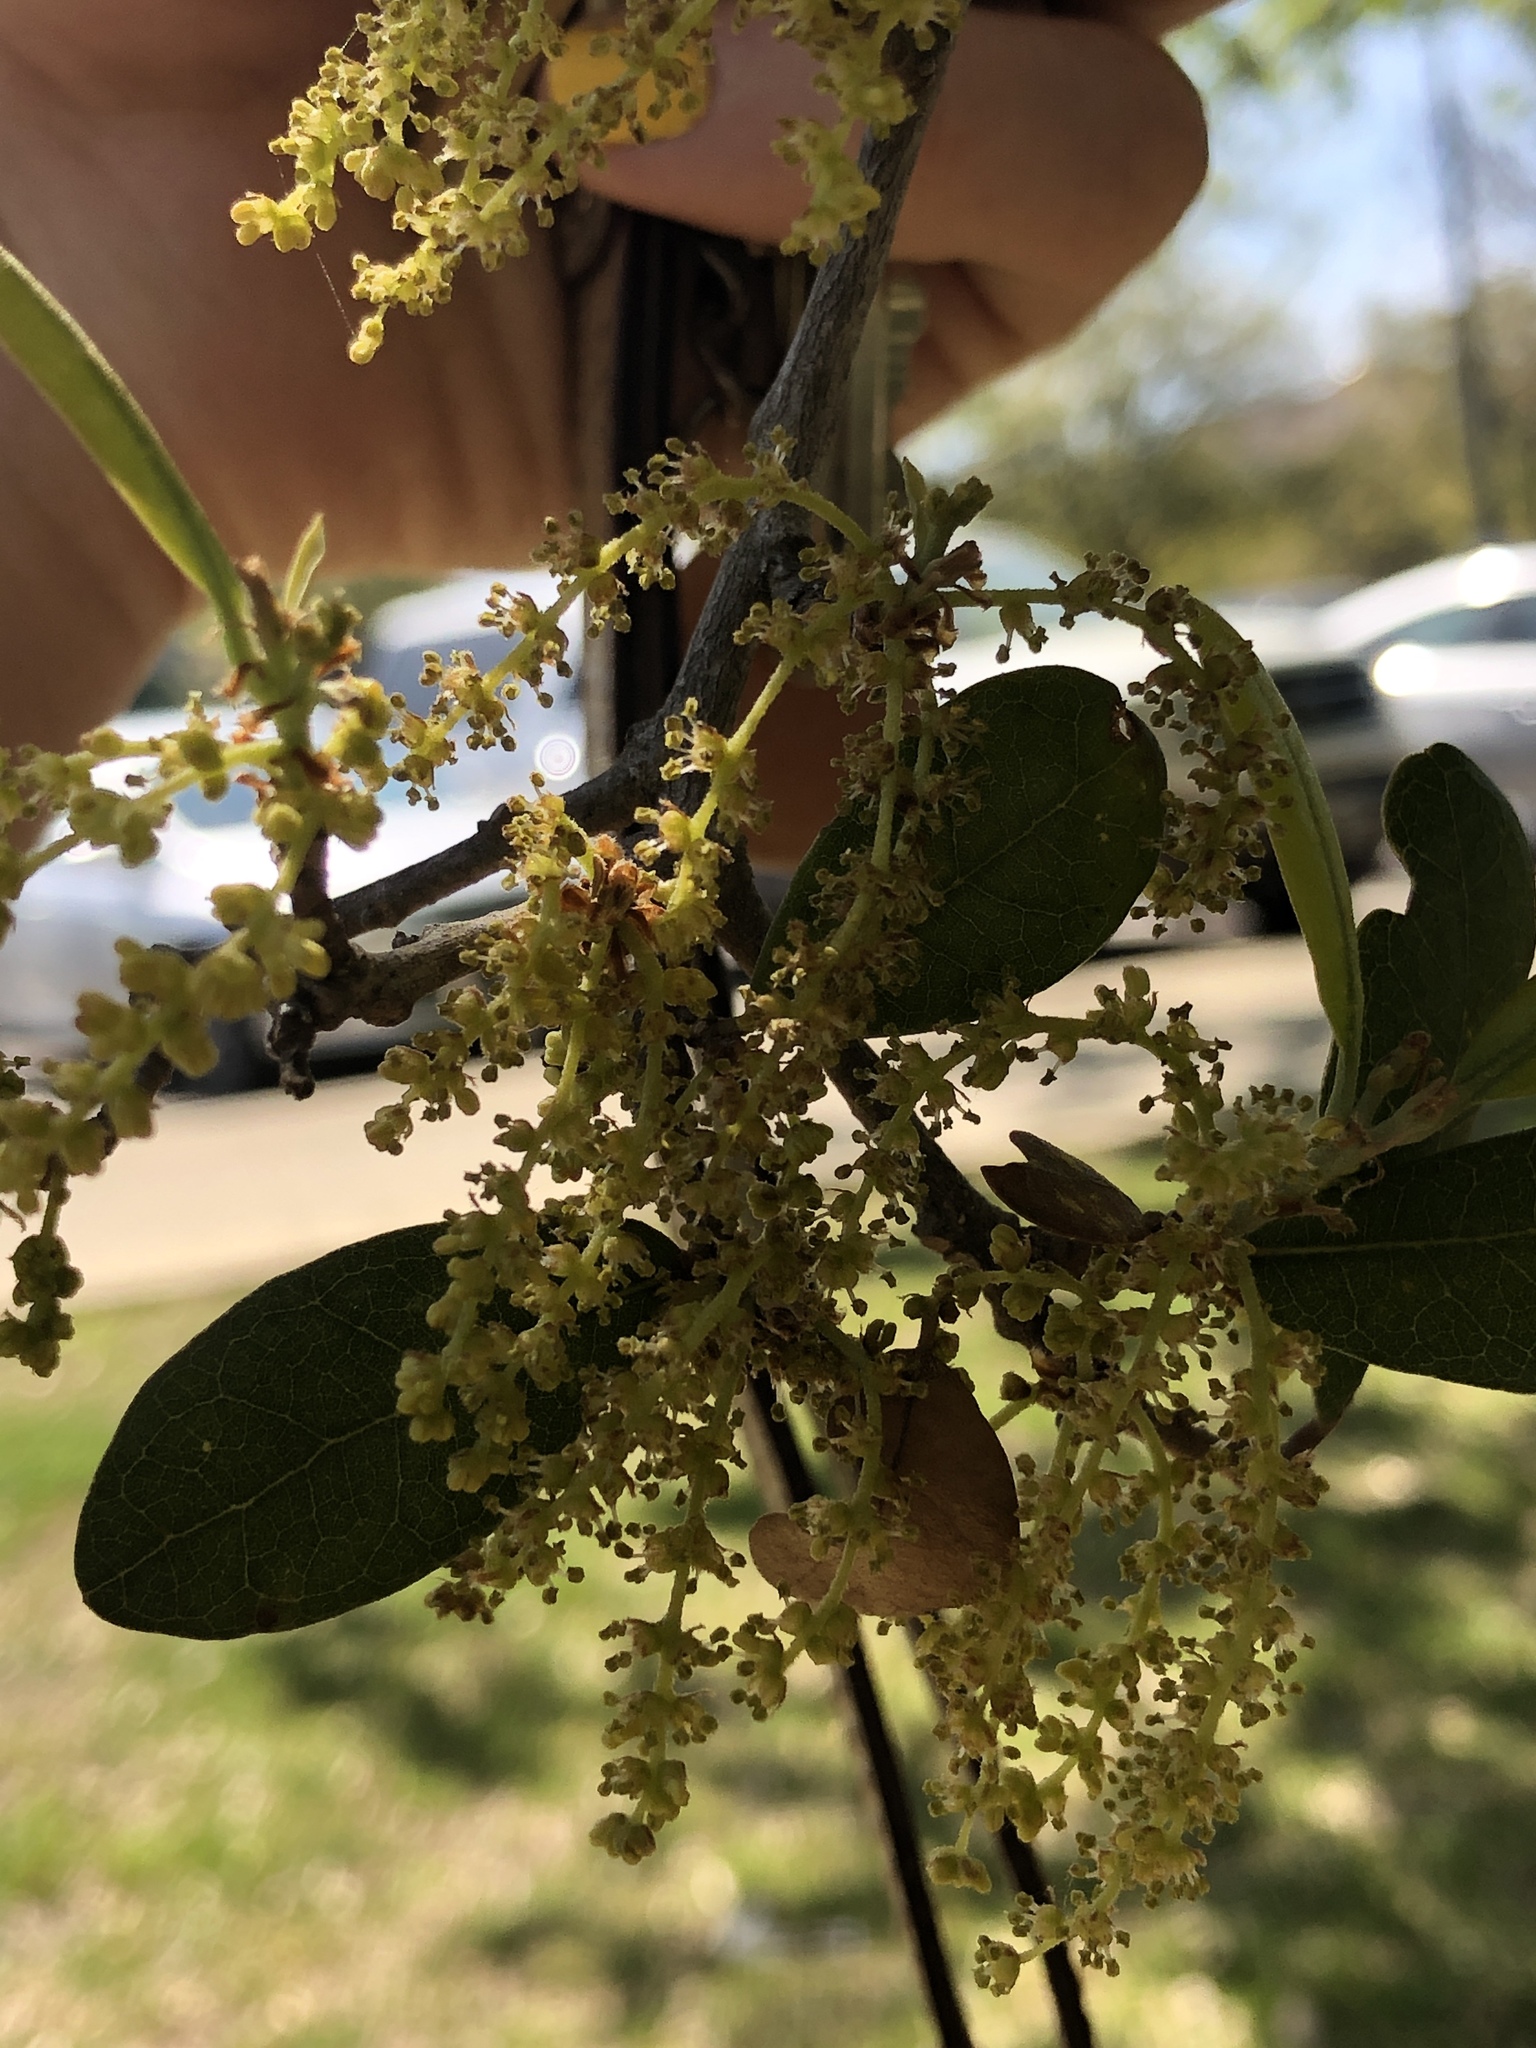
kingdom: Plantae
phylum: Tracheophyta
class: Magnoliopsida
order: Fagales
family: Fagaceae
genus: Quercus
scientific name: Quercus fusiformis
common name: Texas live oak
